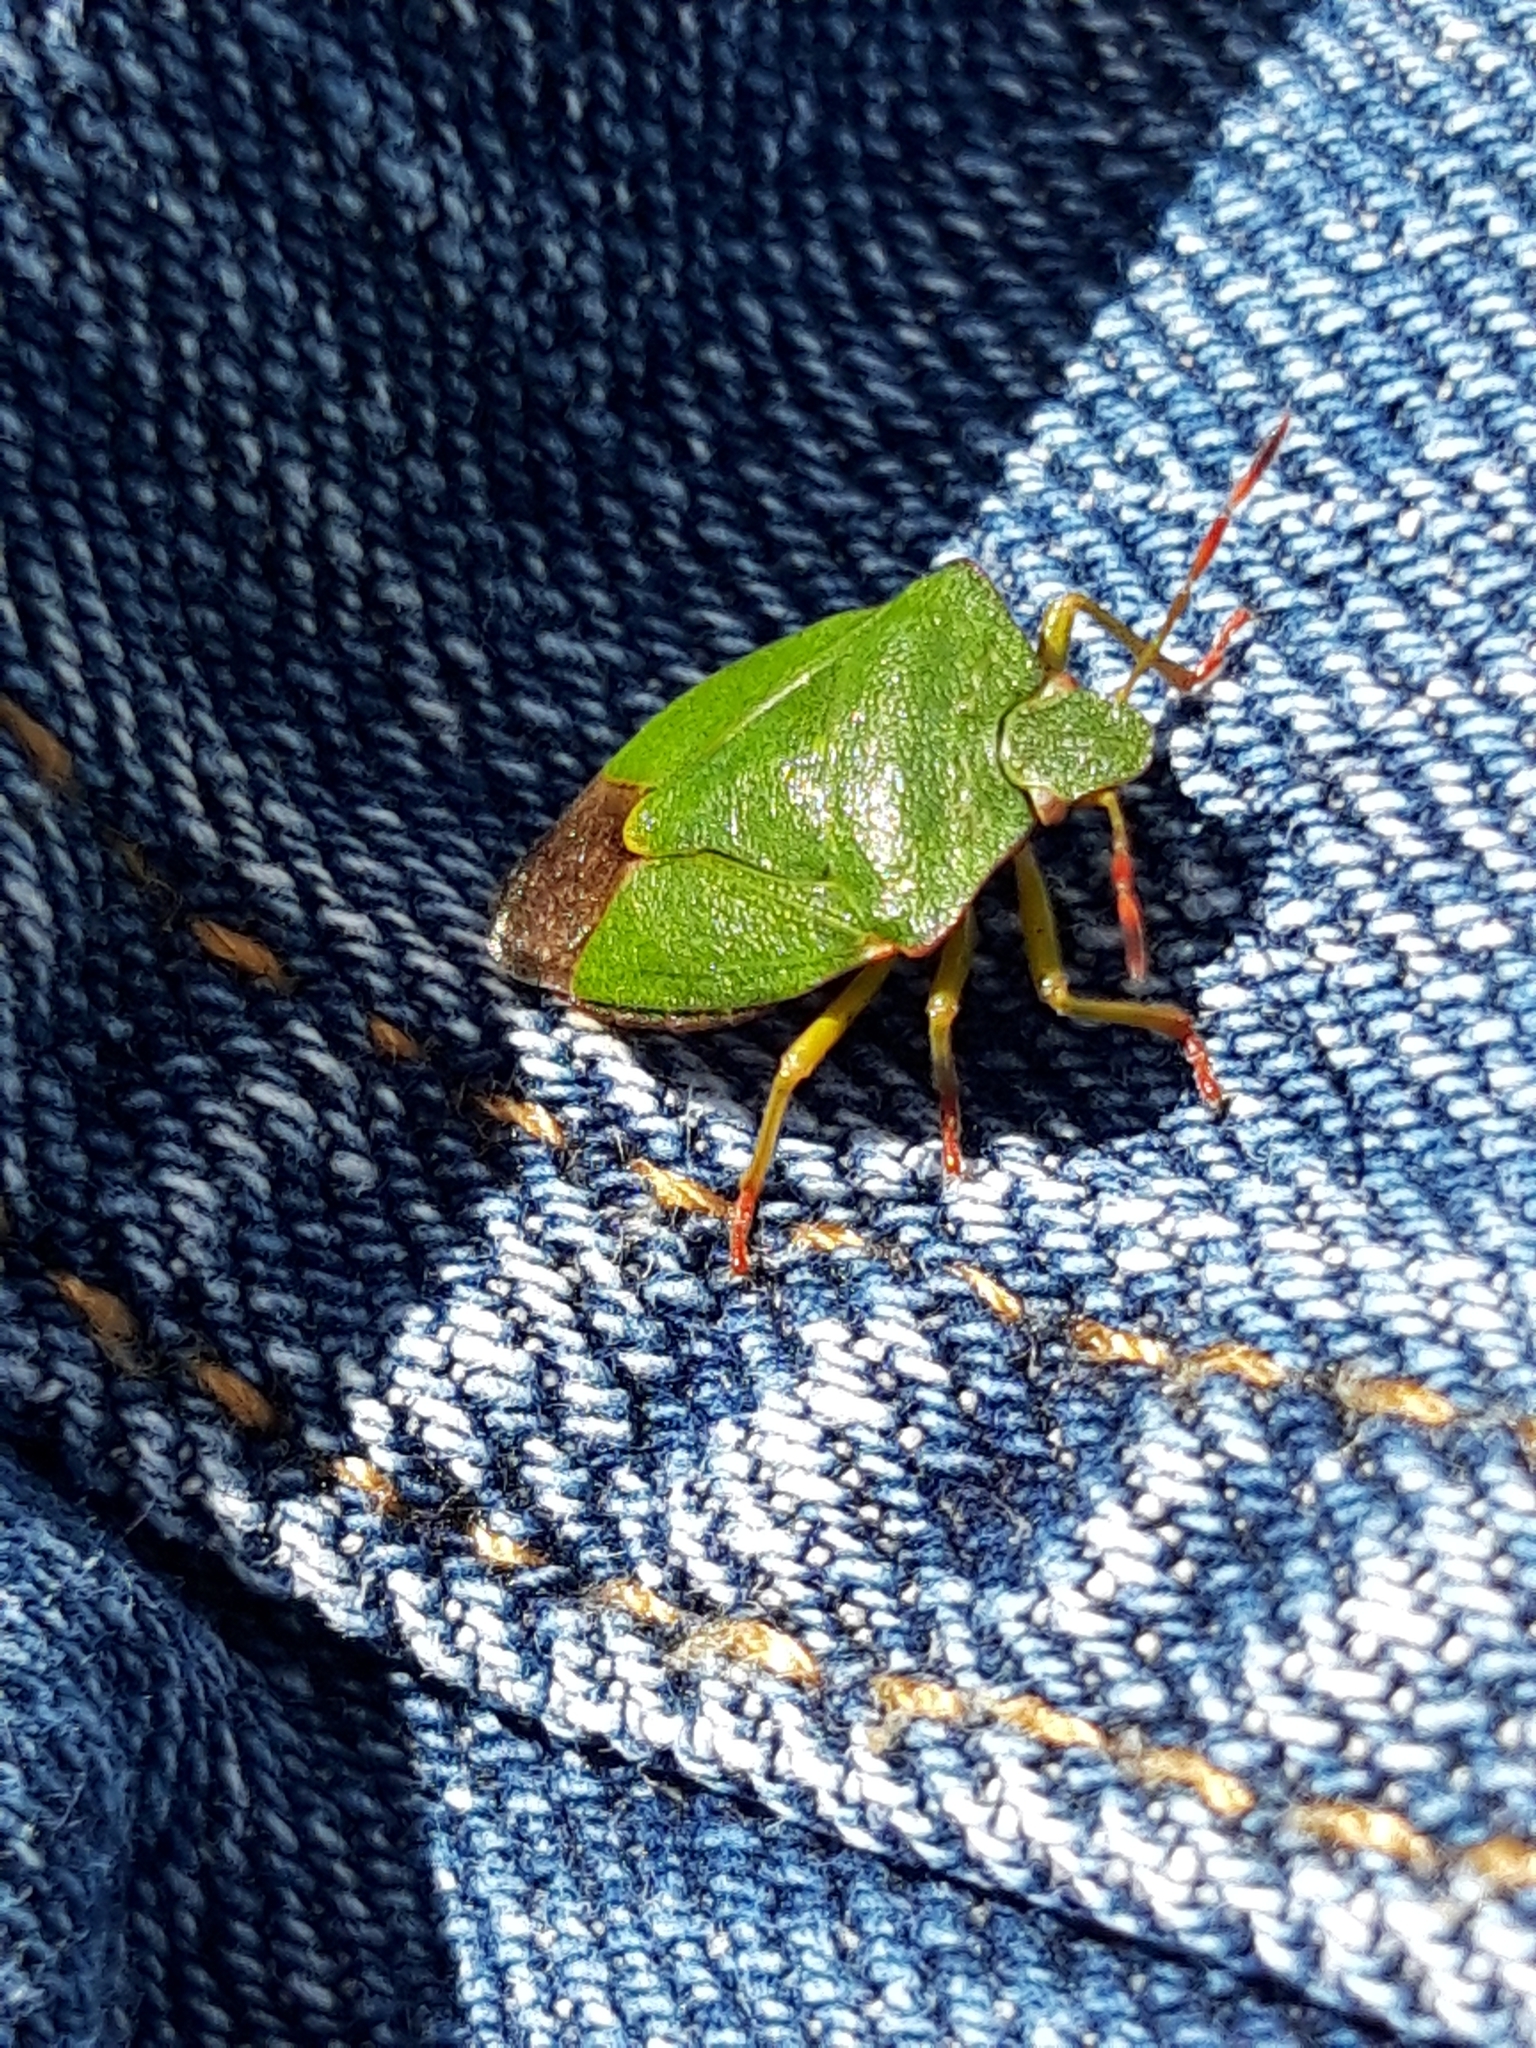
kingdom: Animalia
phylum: Arthropoda
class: Insecta
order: Hemiptera
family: Pentatomidae
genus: Palomena
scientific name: Palomena prasina
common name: Green shieldbug
